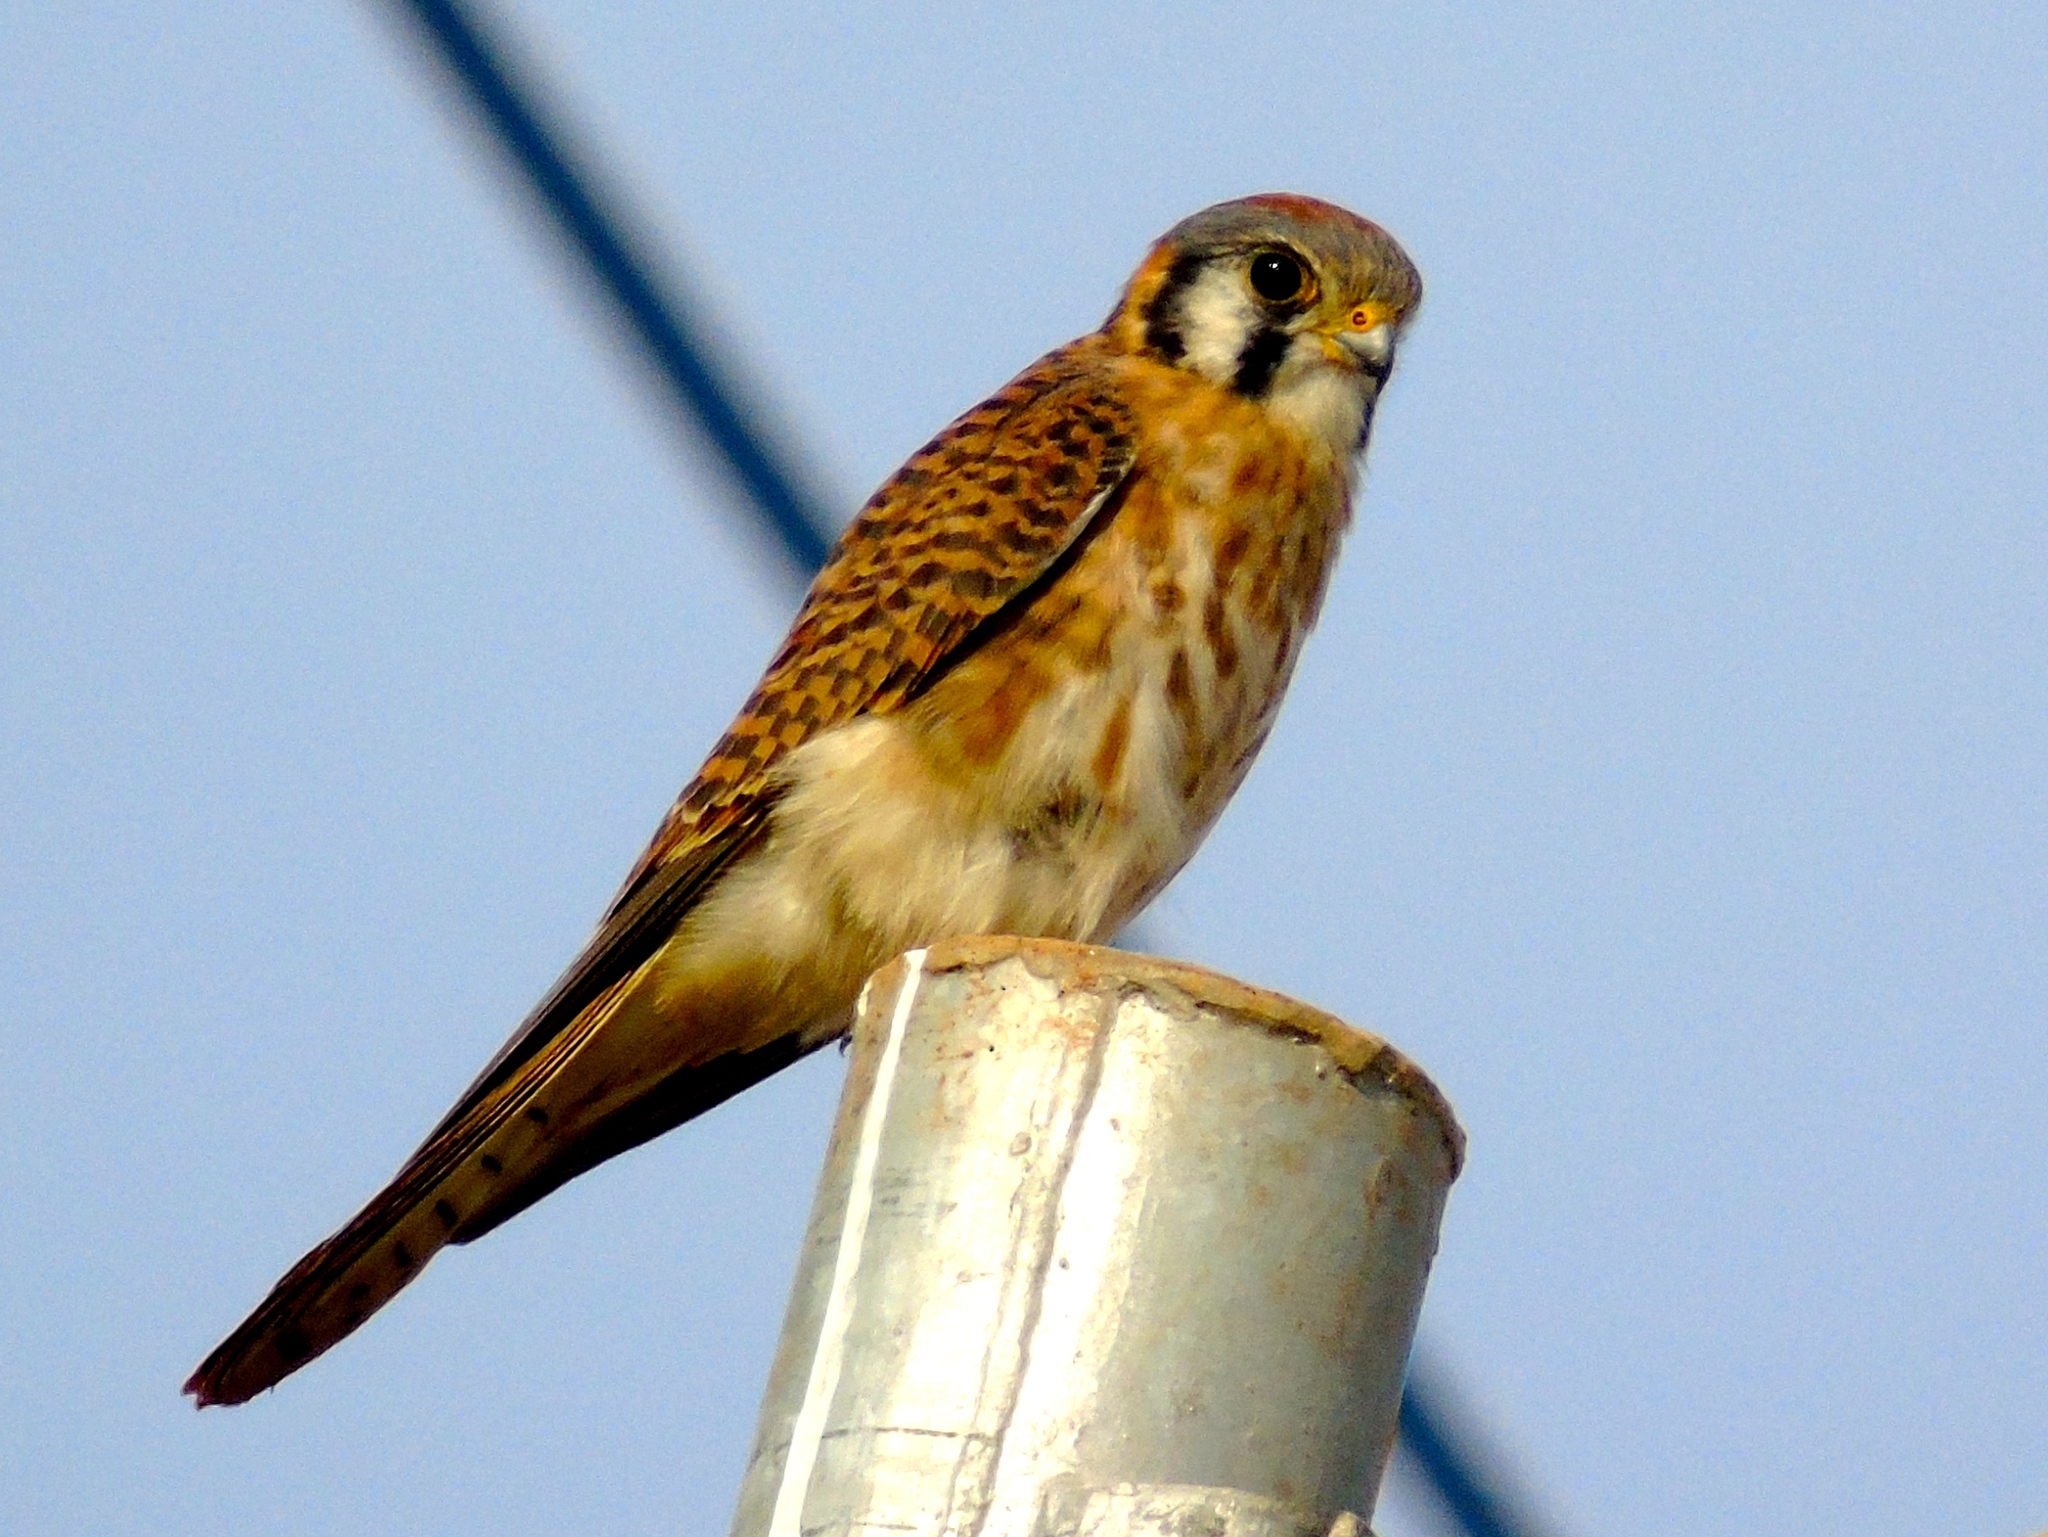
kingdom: Animalia
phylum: Chordata
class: Aves
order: Falconiformes
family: Falconidae
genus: Falco
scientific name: Falco sparverius
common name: American kestrel
